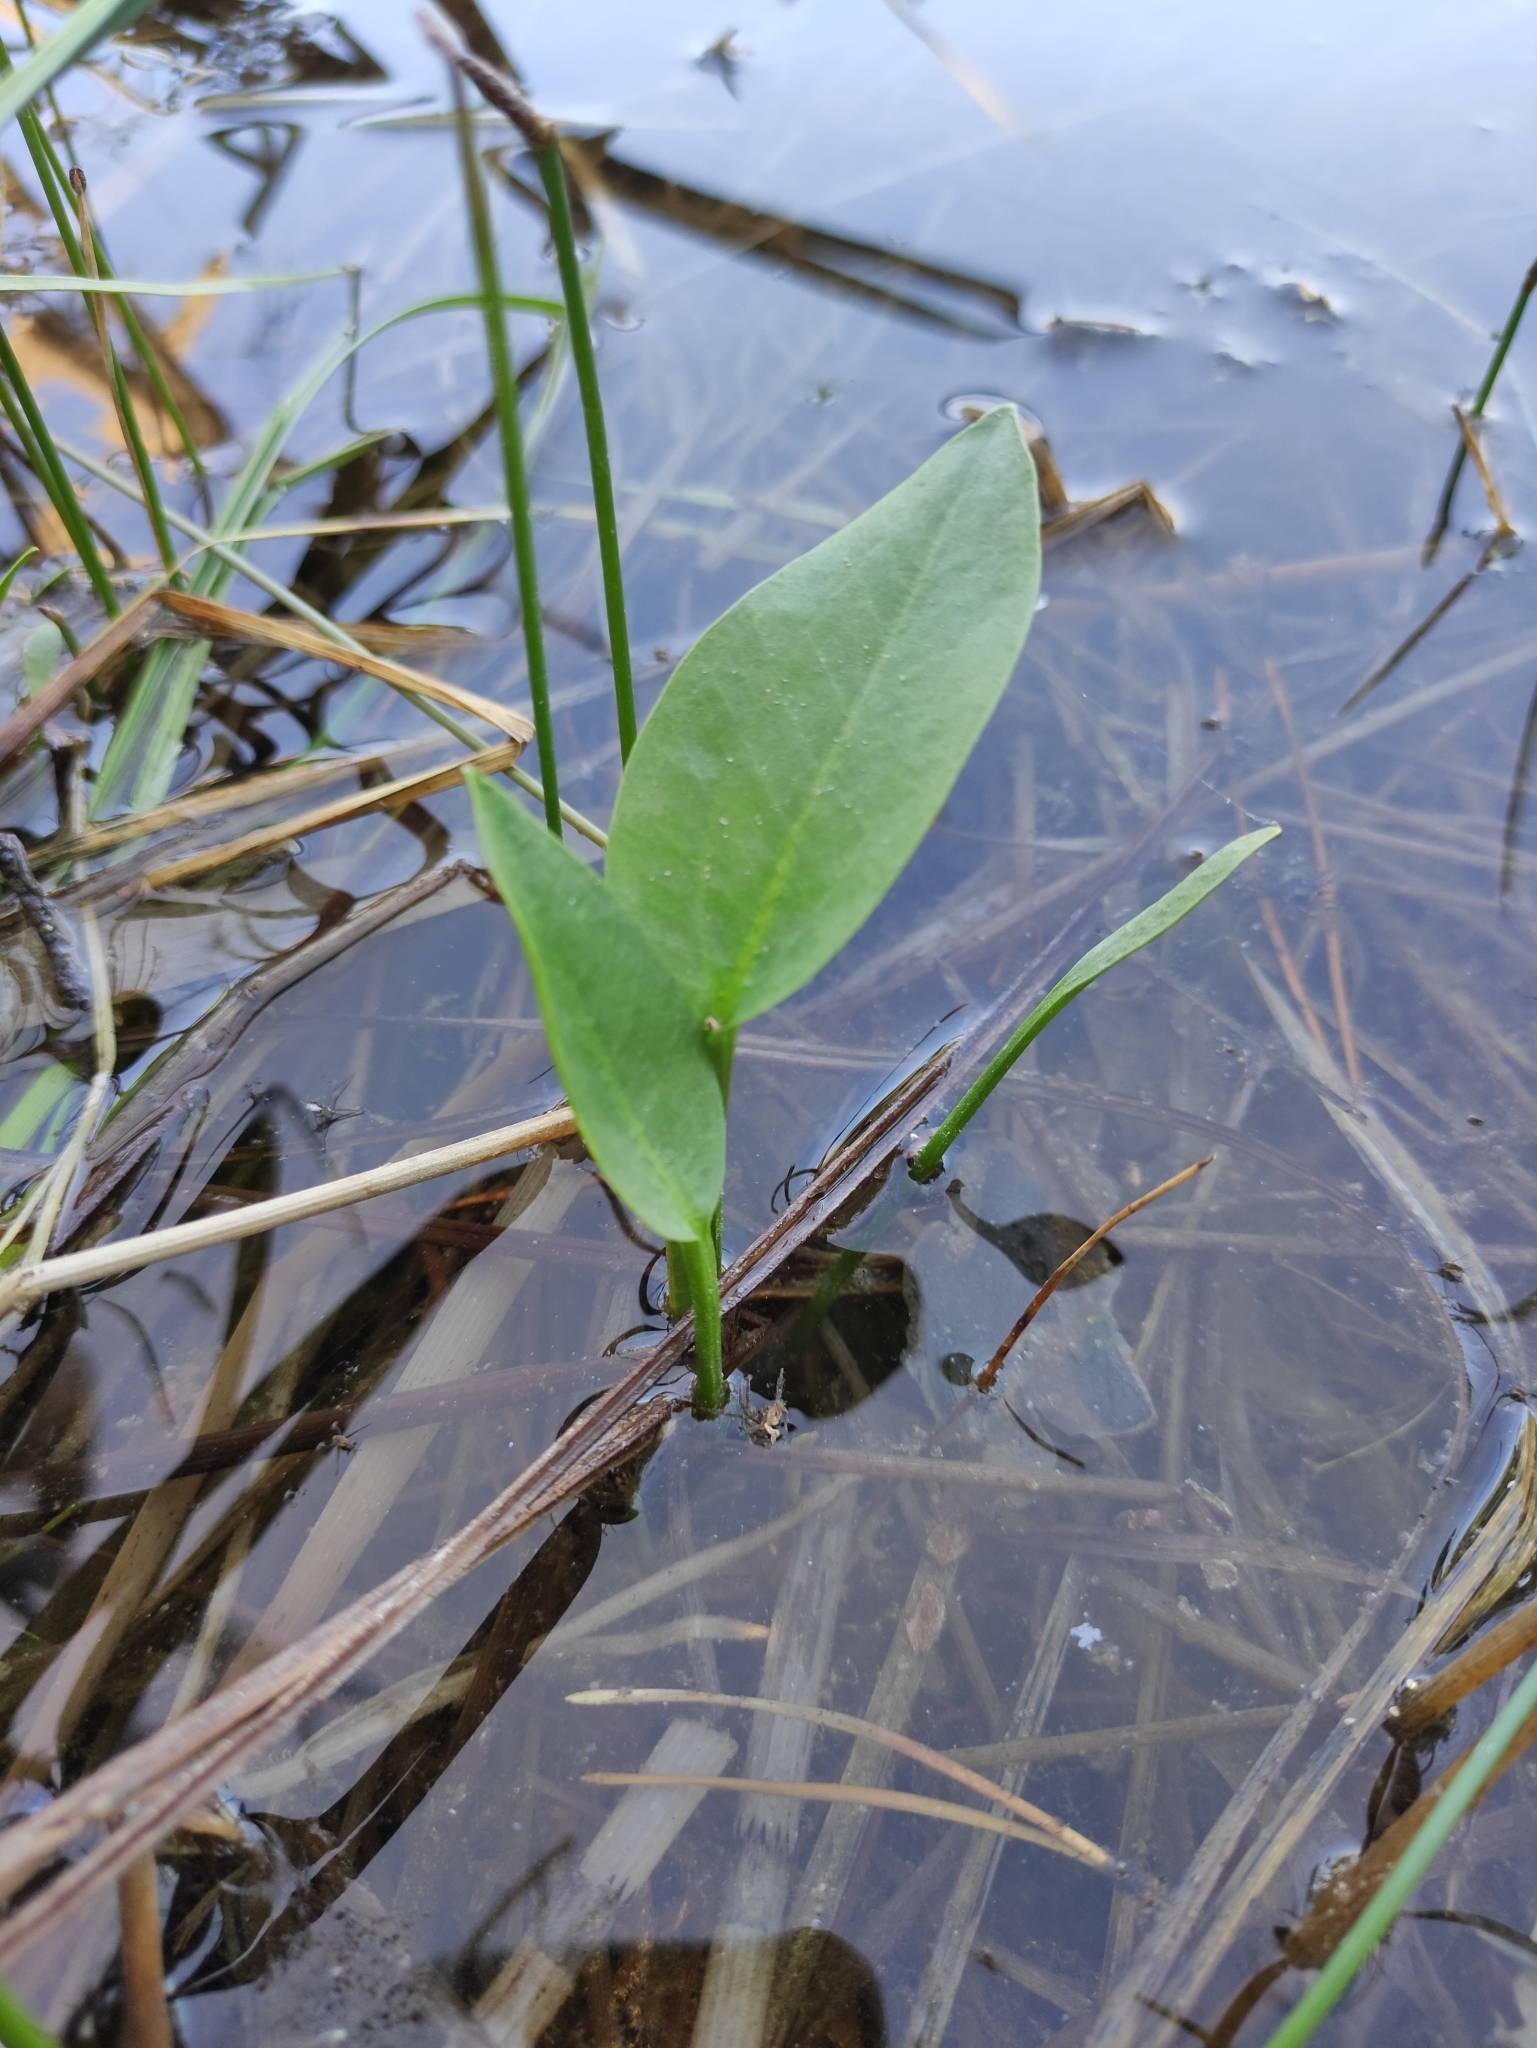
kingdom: Plantae
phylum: Tracheophyta
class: Liliopsida
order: Alismatales
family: Alismataceae
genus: Alisma
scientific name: Alisma plantago-aquatica
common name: Water-plantain
